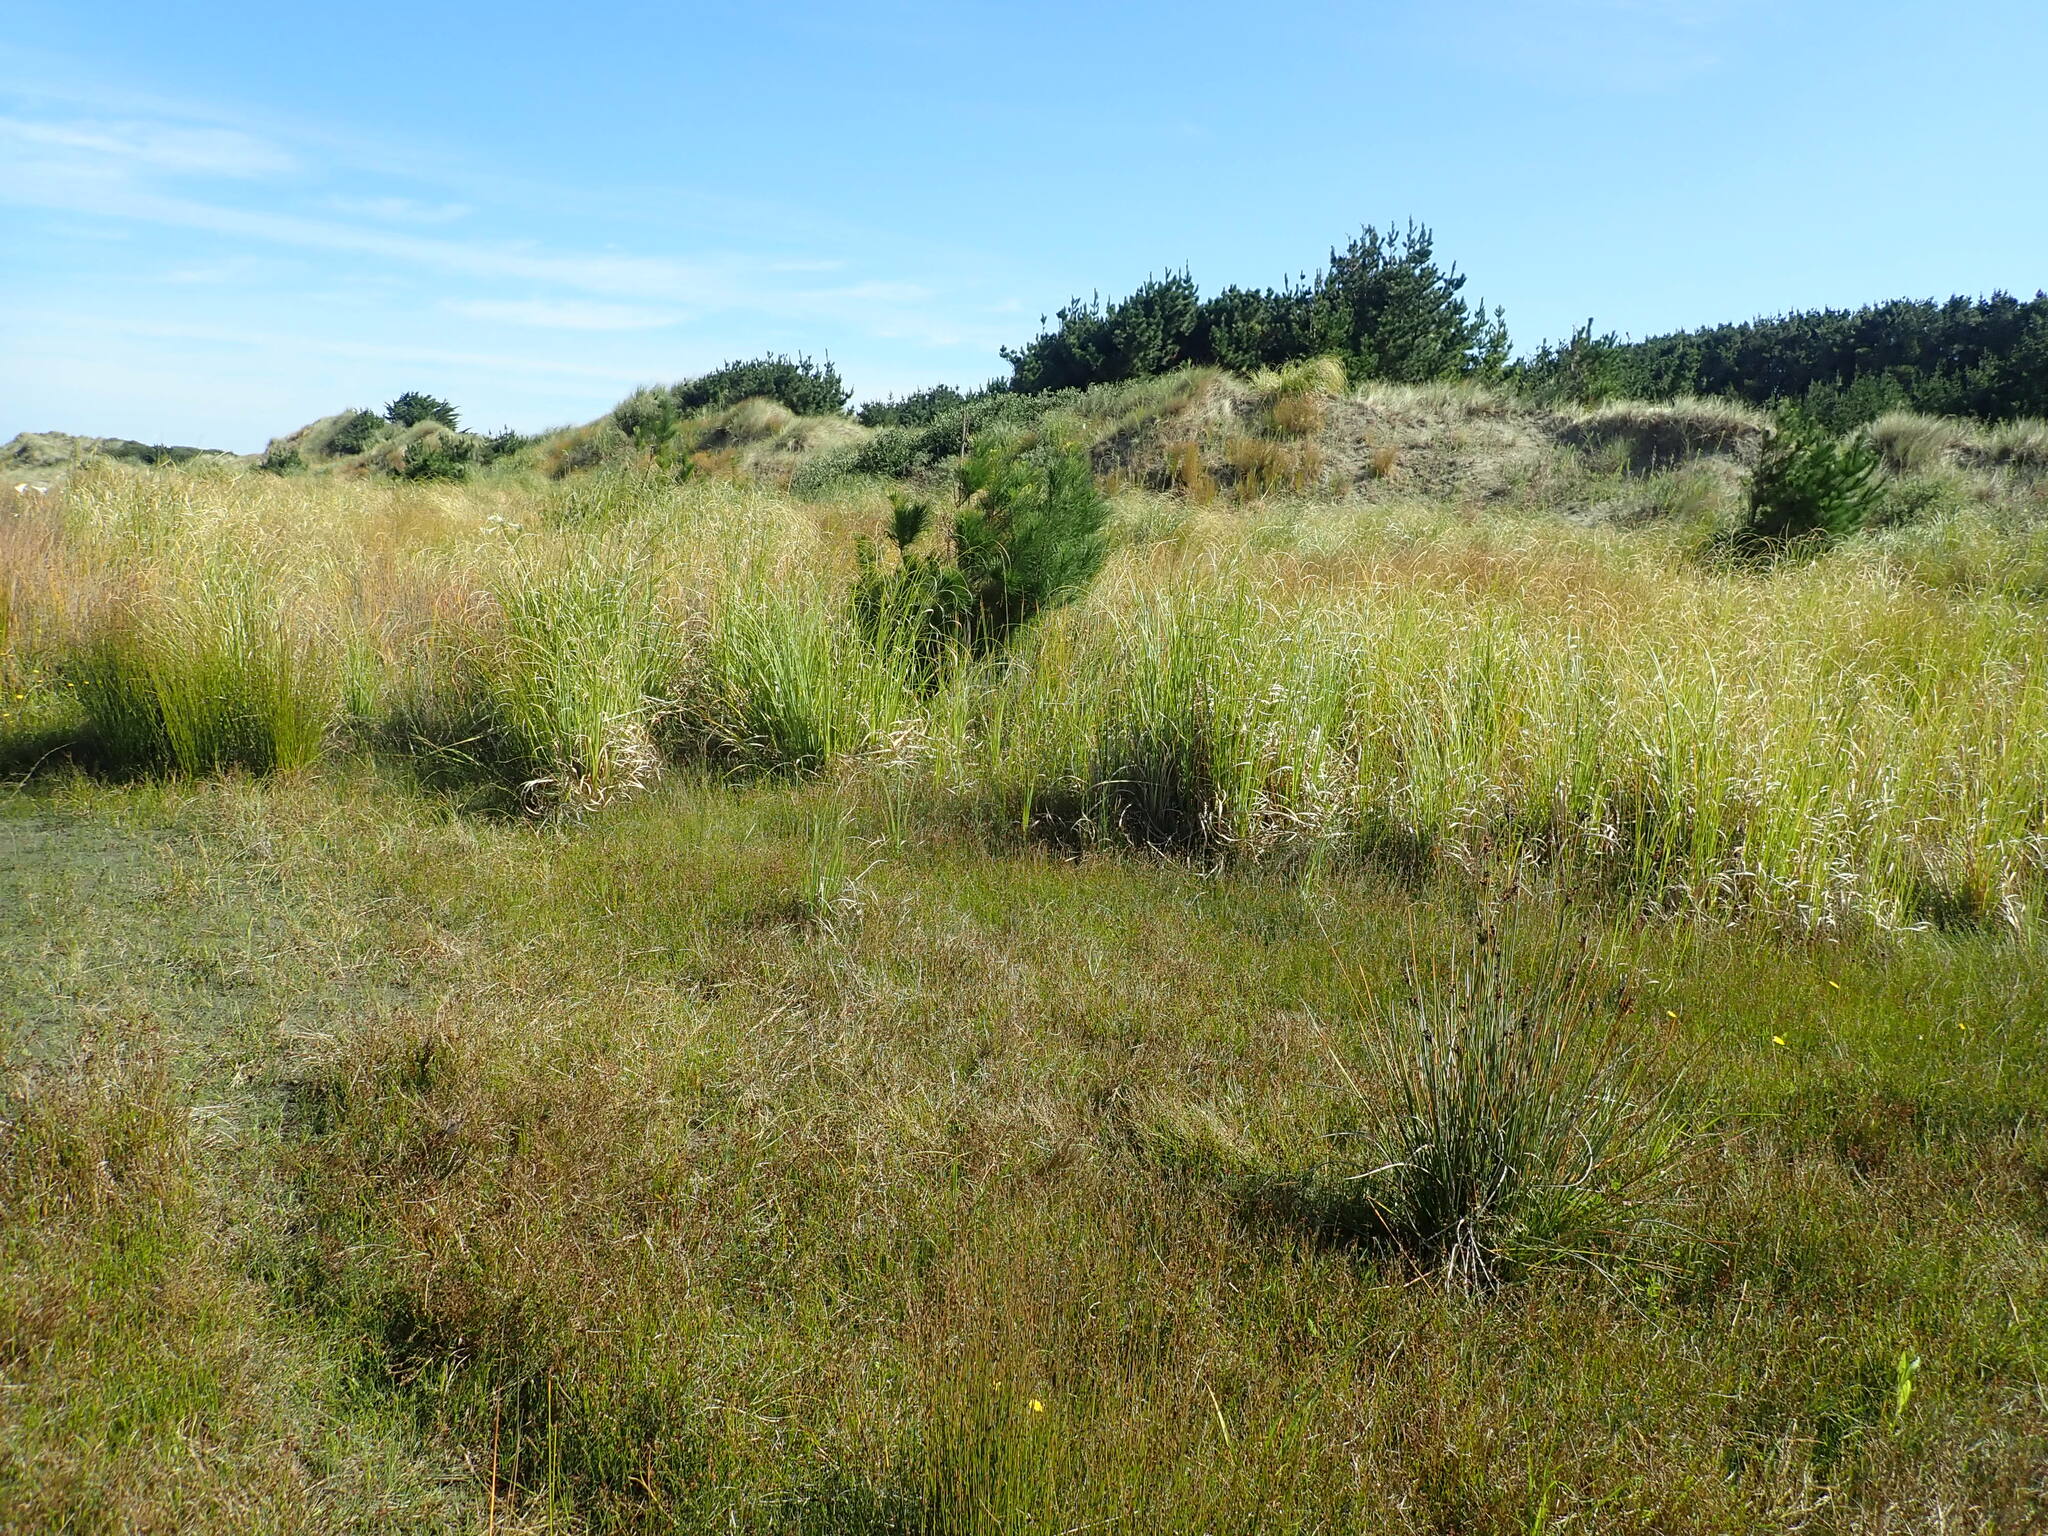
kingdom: Plantae
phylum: Tracheophyta
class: Pinopsida
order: Pinales
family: Pinaceae
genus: Pinus
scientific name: Pinus radiata
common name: Monterey pine
